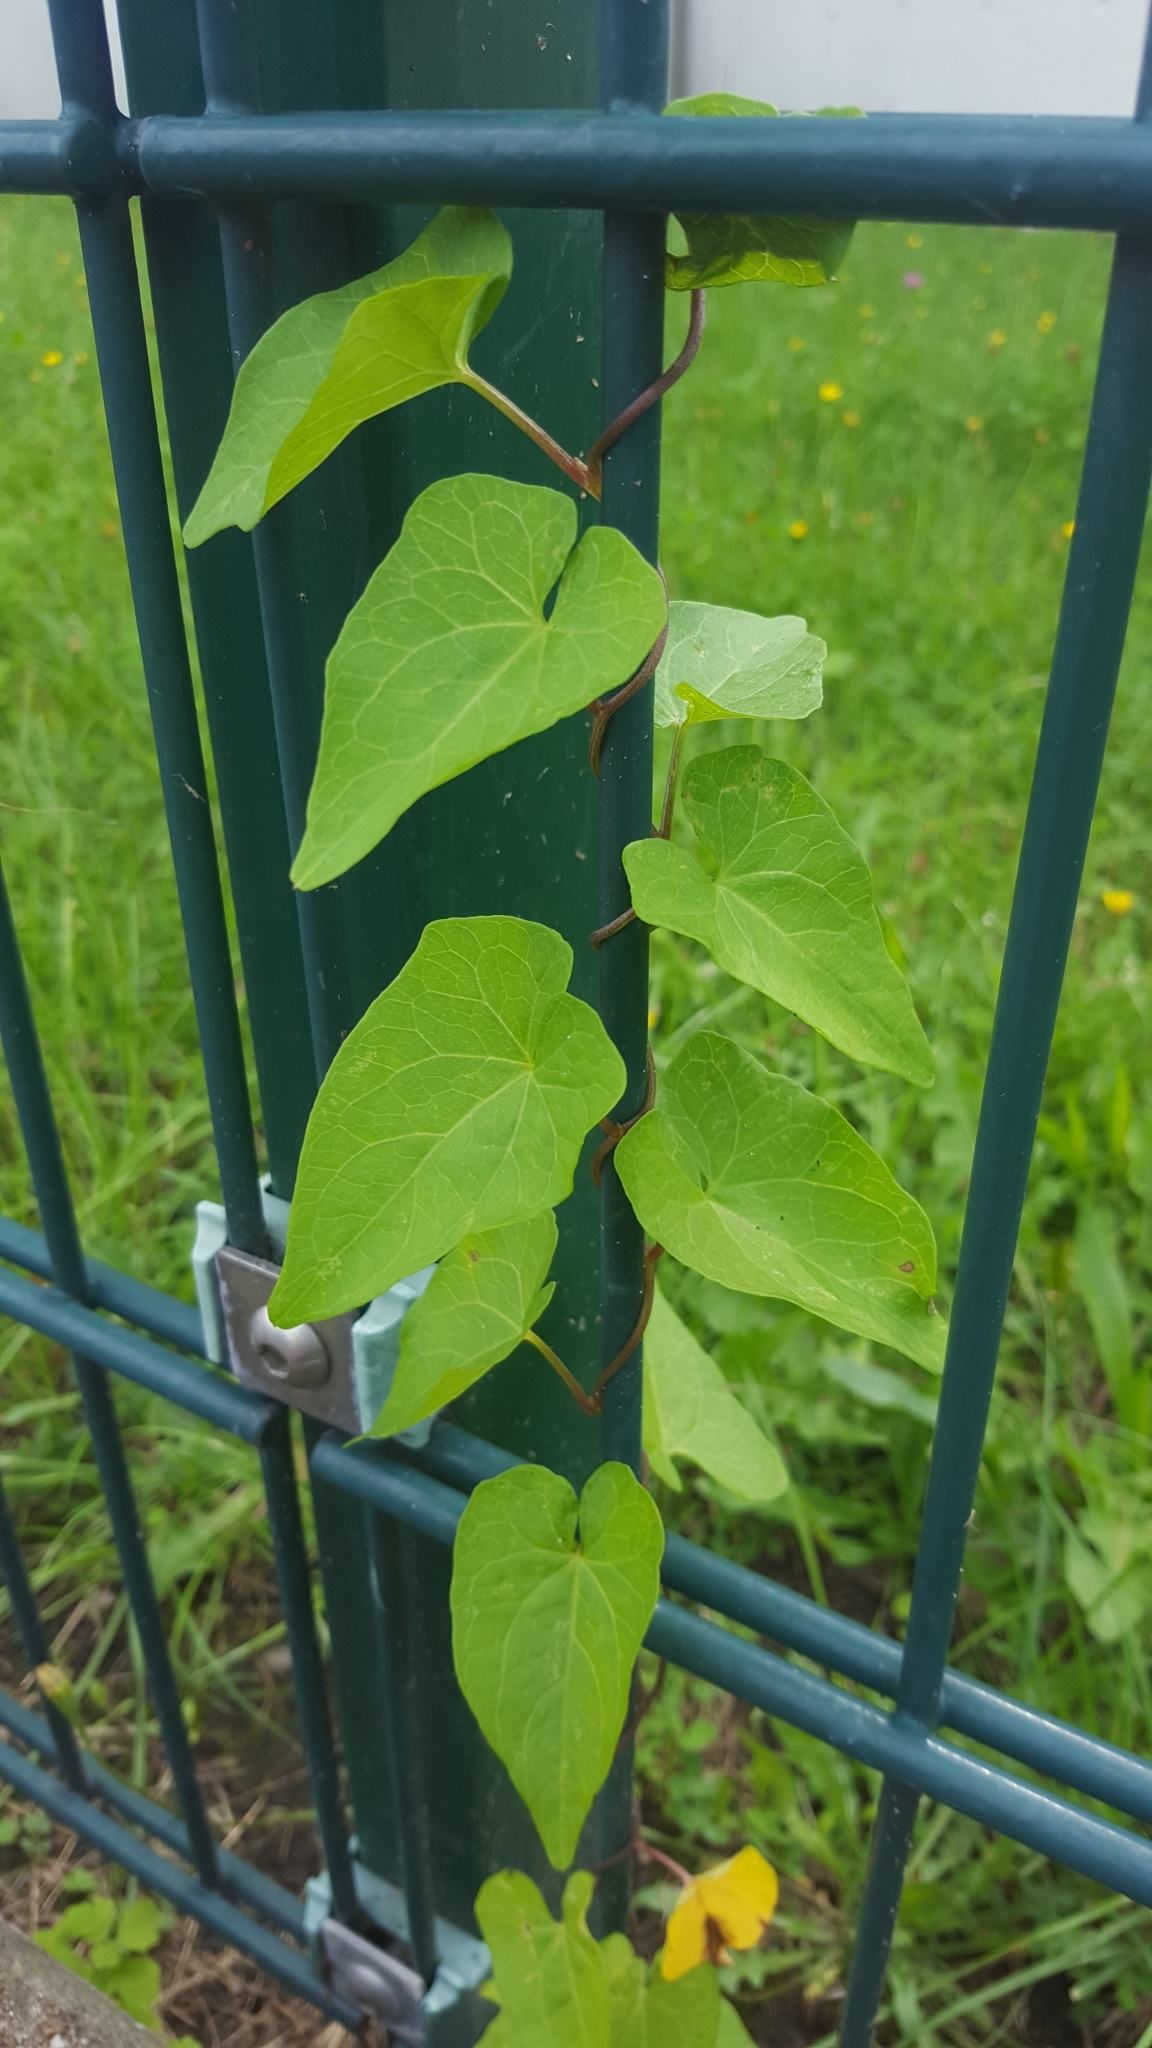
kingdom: Plantae
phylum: Tracheophyta
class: Magnoliopsida
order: Solanales
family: Convolvulaceae
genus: Calystegia
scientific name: Calystegia sepium
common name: Hedge bindweed
